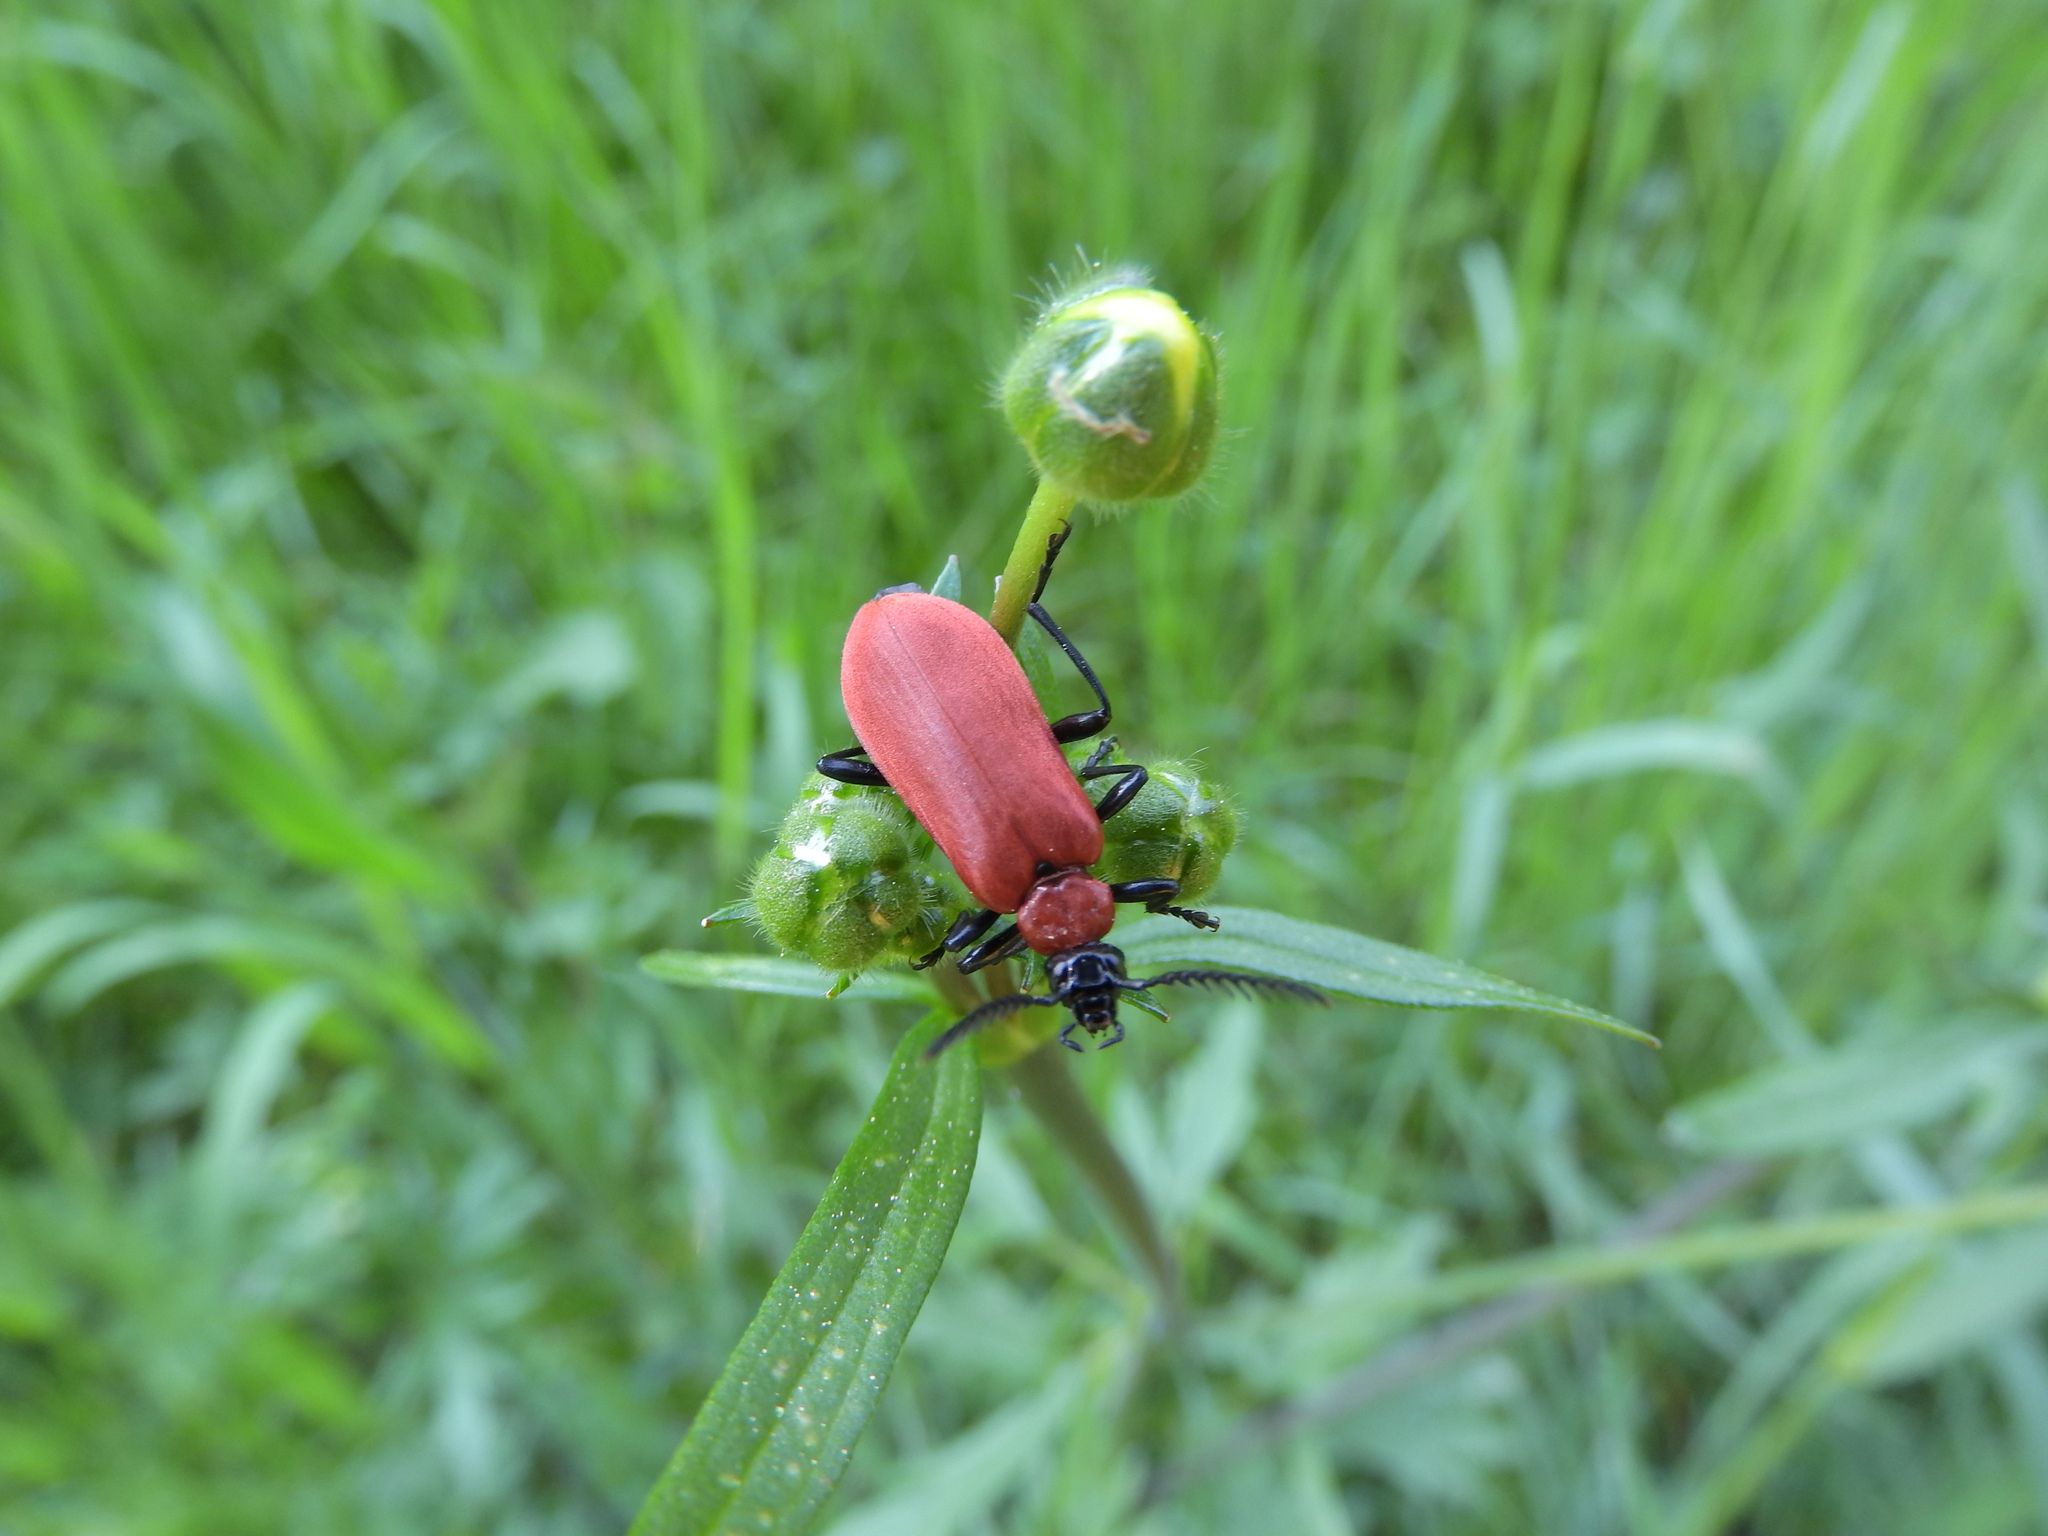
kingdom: Animalia
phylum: Arthropoda
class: Insecta
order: Coleoptera
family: Pyrochroidae
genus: Pyrochroa
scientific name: Pyrochroa coccinea
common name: Black-headed cardinal beetle
